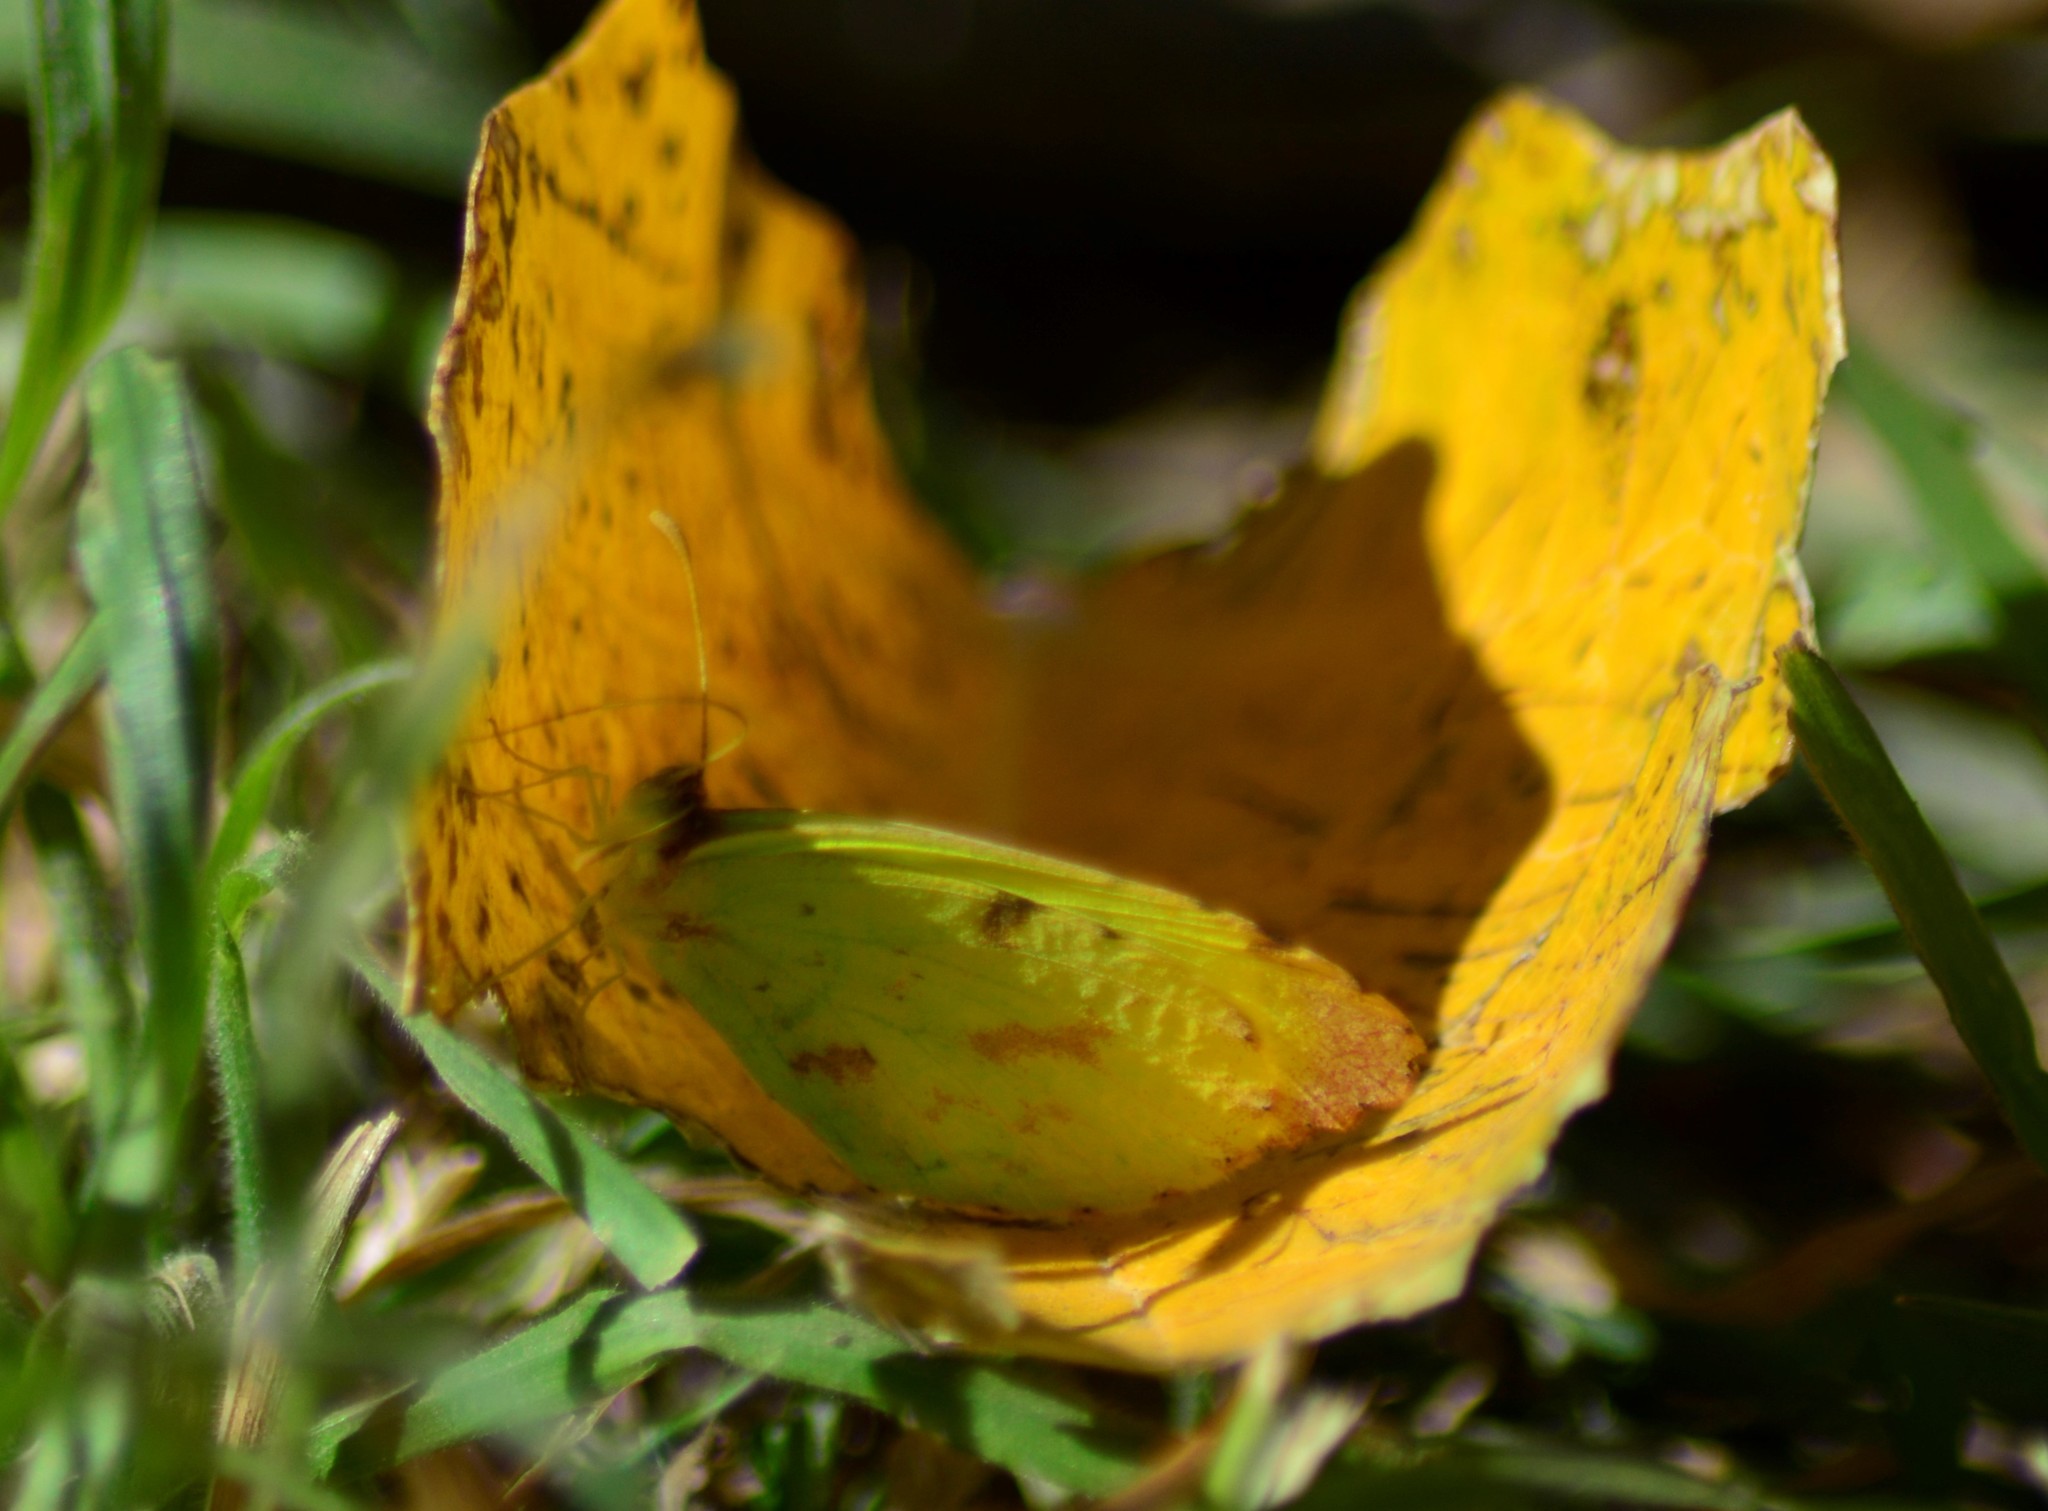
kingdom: Animalia
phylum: Arthropoda
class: Insecta
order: Lepidoptera
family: Pieridae
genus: Teriocolias
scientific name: Teriocolias
